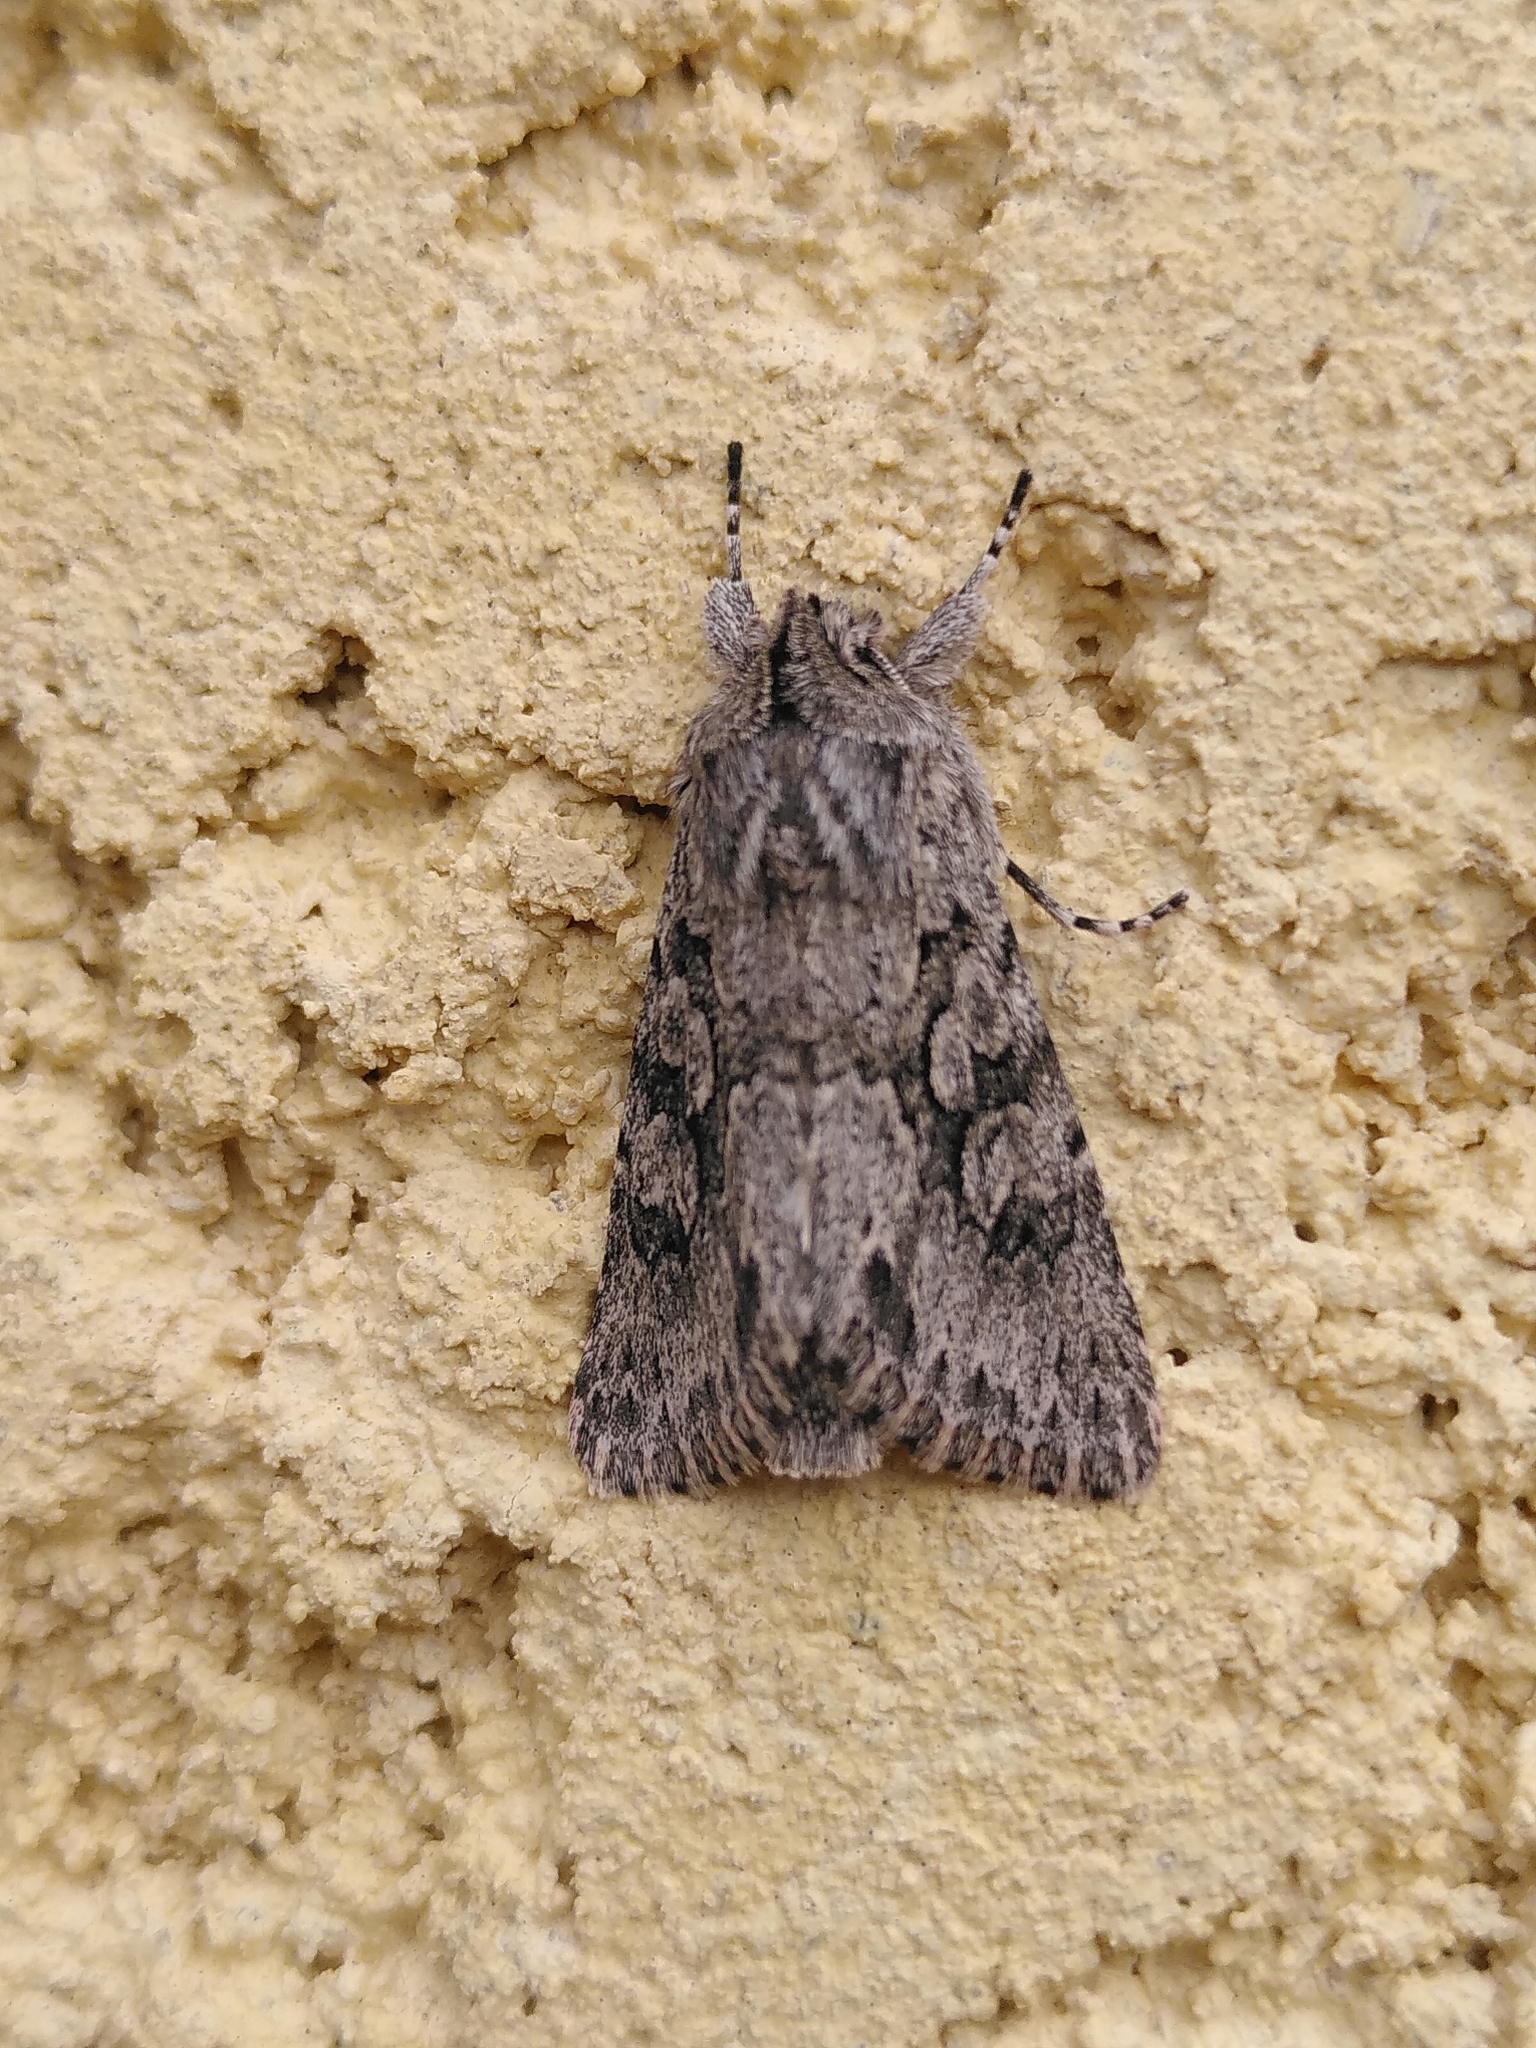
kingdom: Animalia
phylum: Arthropoda
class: Insecta
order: Lepidoptera
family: Noctuidae
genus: Xylocampa
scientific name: Xylocampa areola
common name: Early grey
